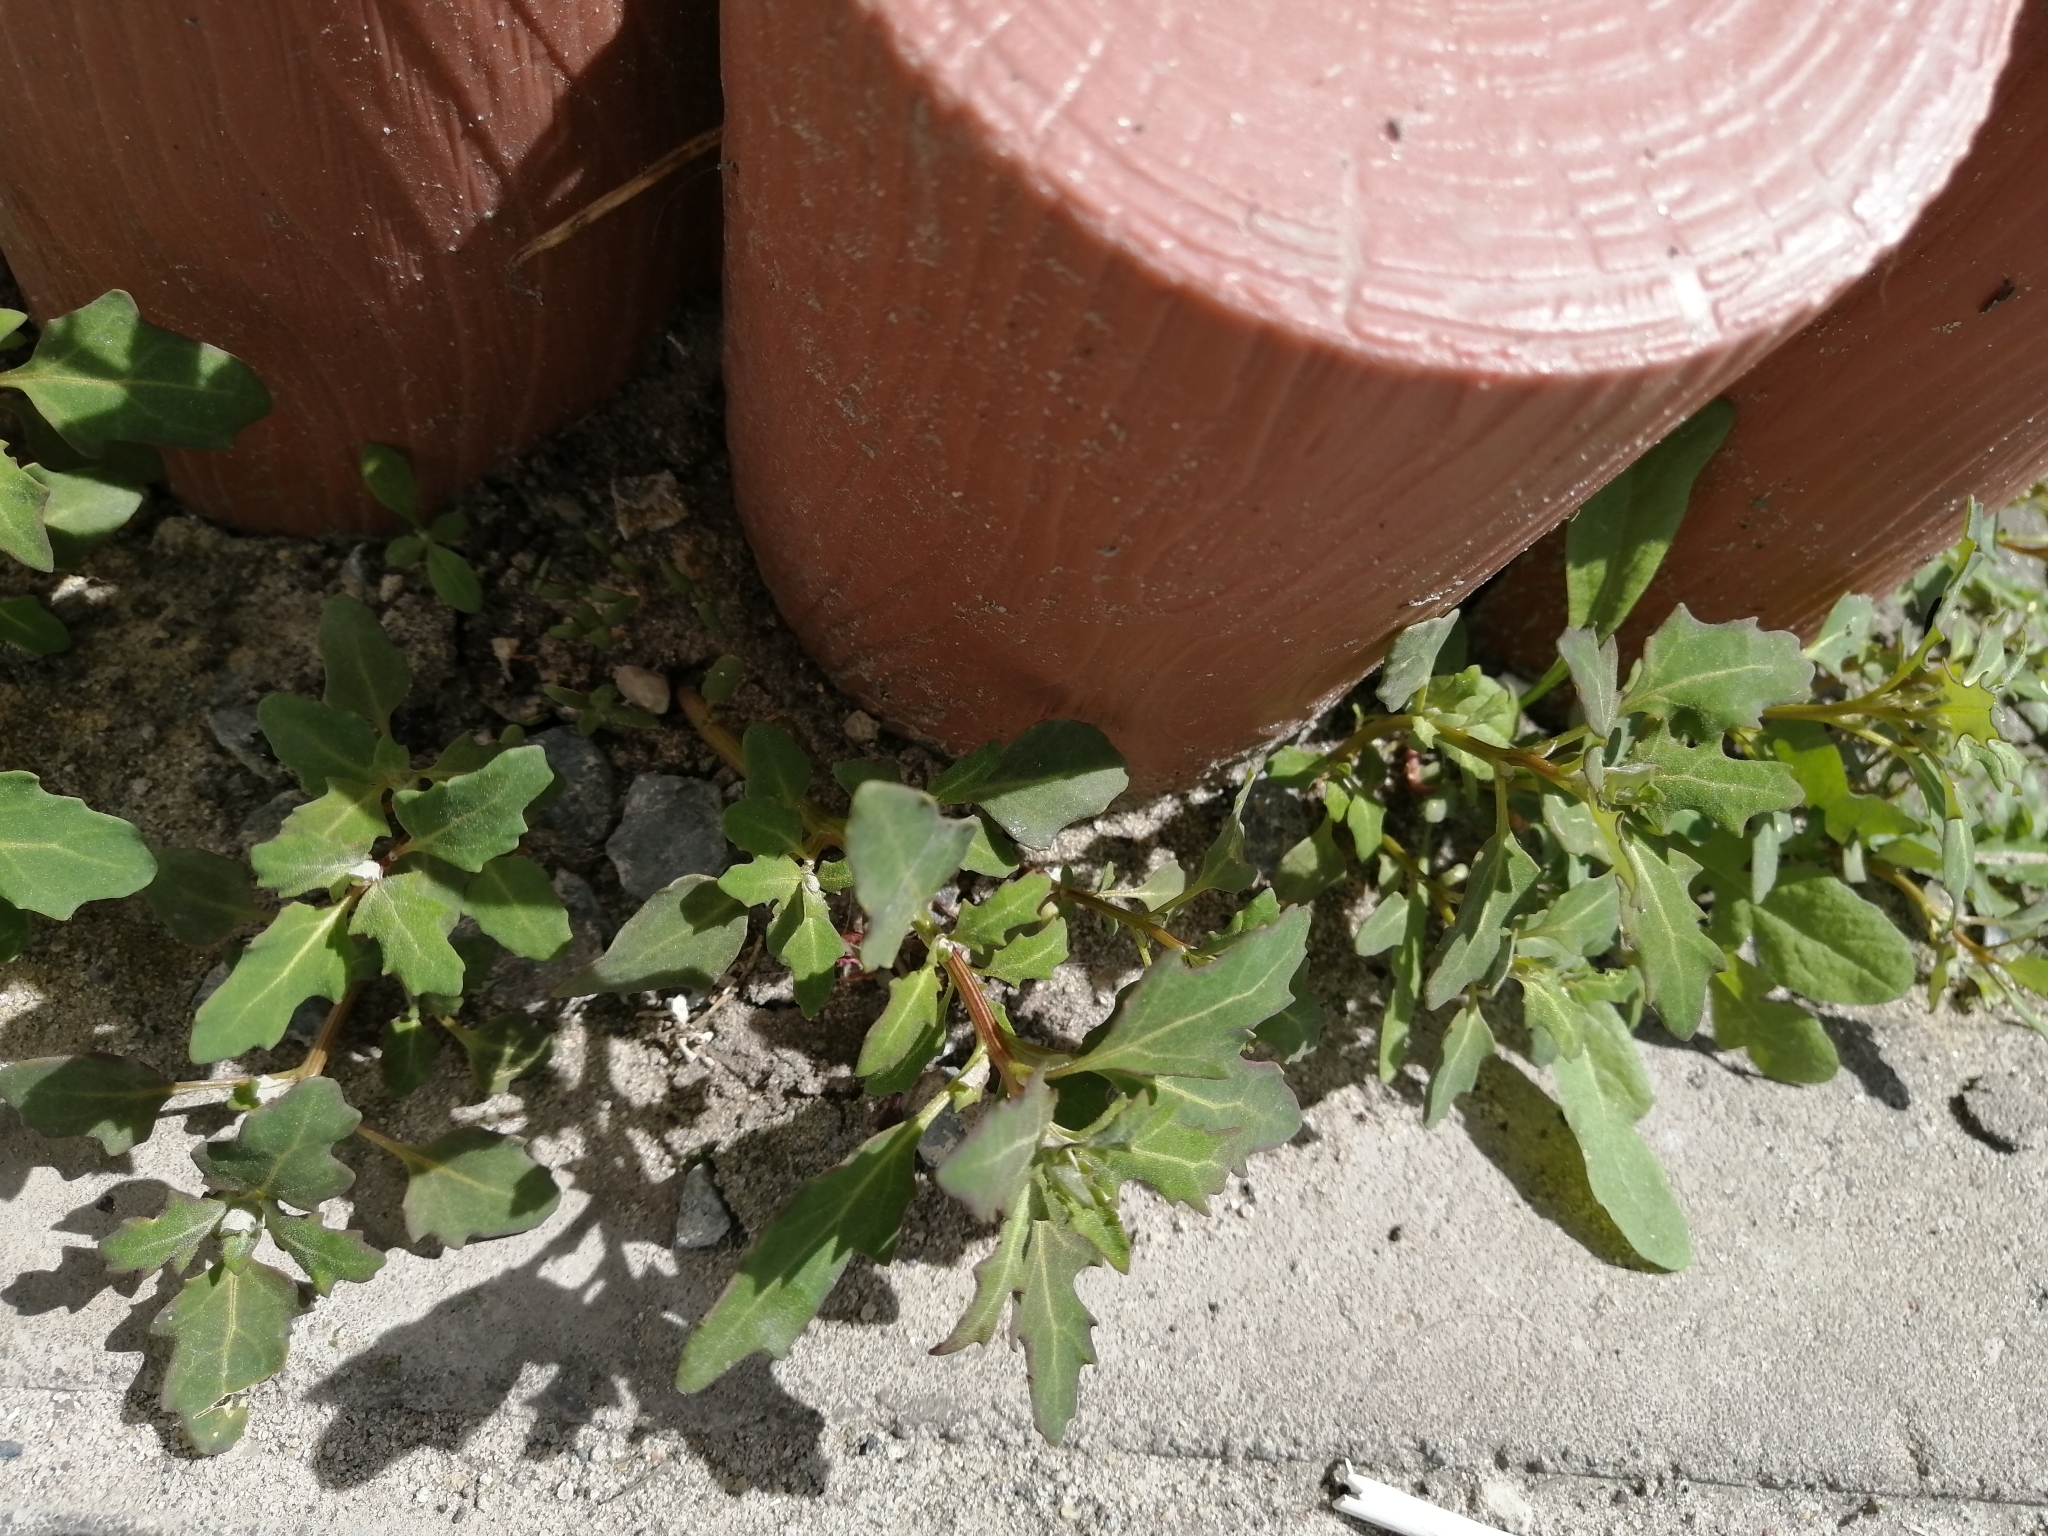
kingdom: Plantae
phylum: Tracheophyta
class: Magnoliopsida
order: Caryophyllales
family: Amaranthaceae
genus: Oxybasis
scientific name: Oxybasis glauca
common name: Glaucous goosefoot
